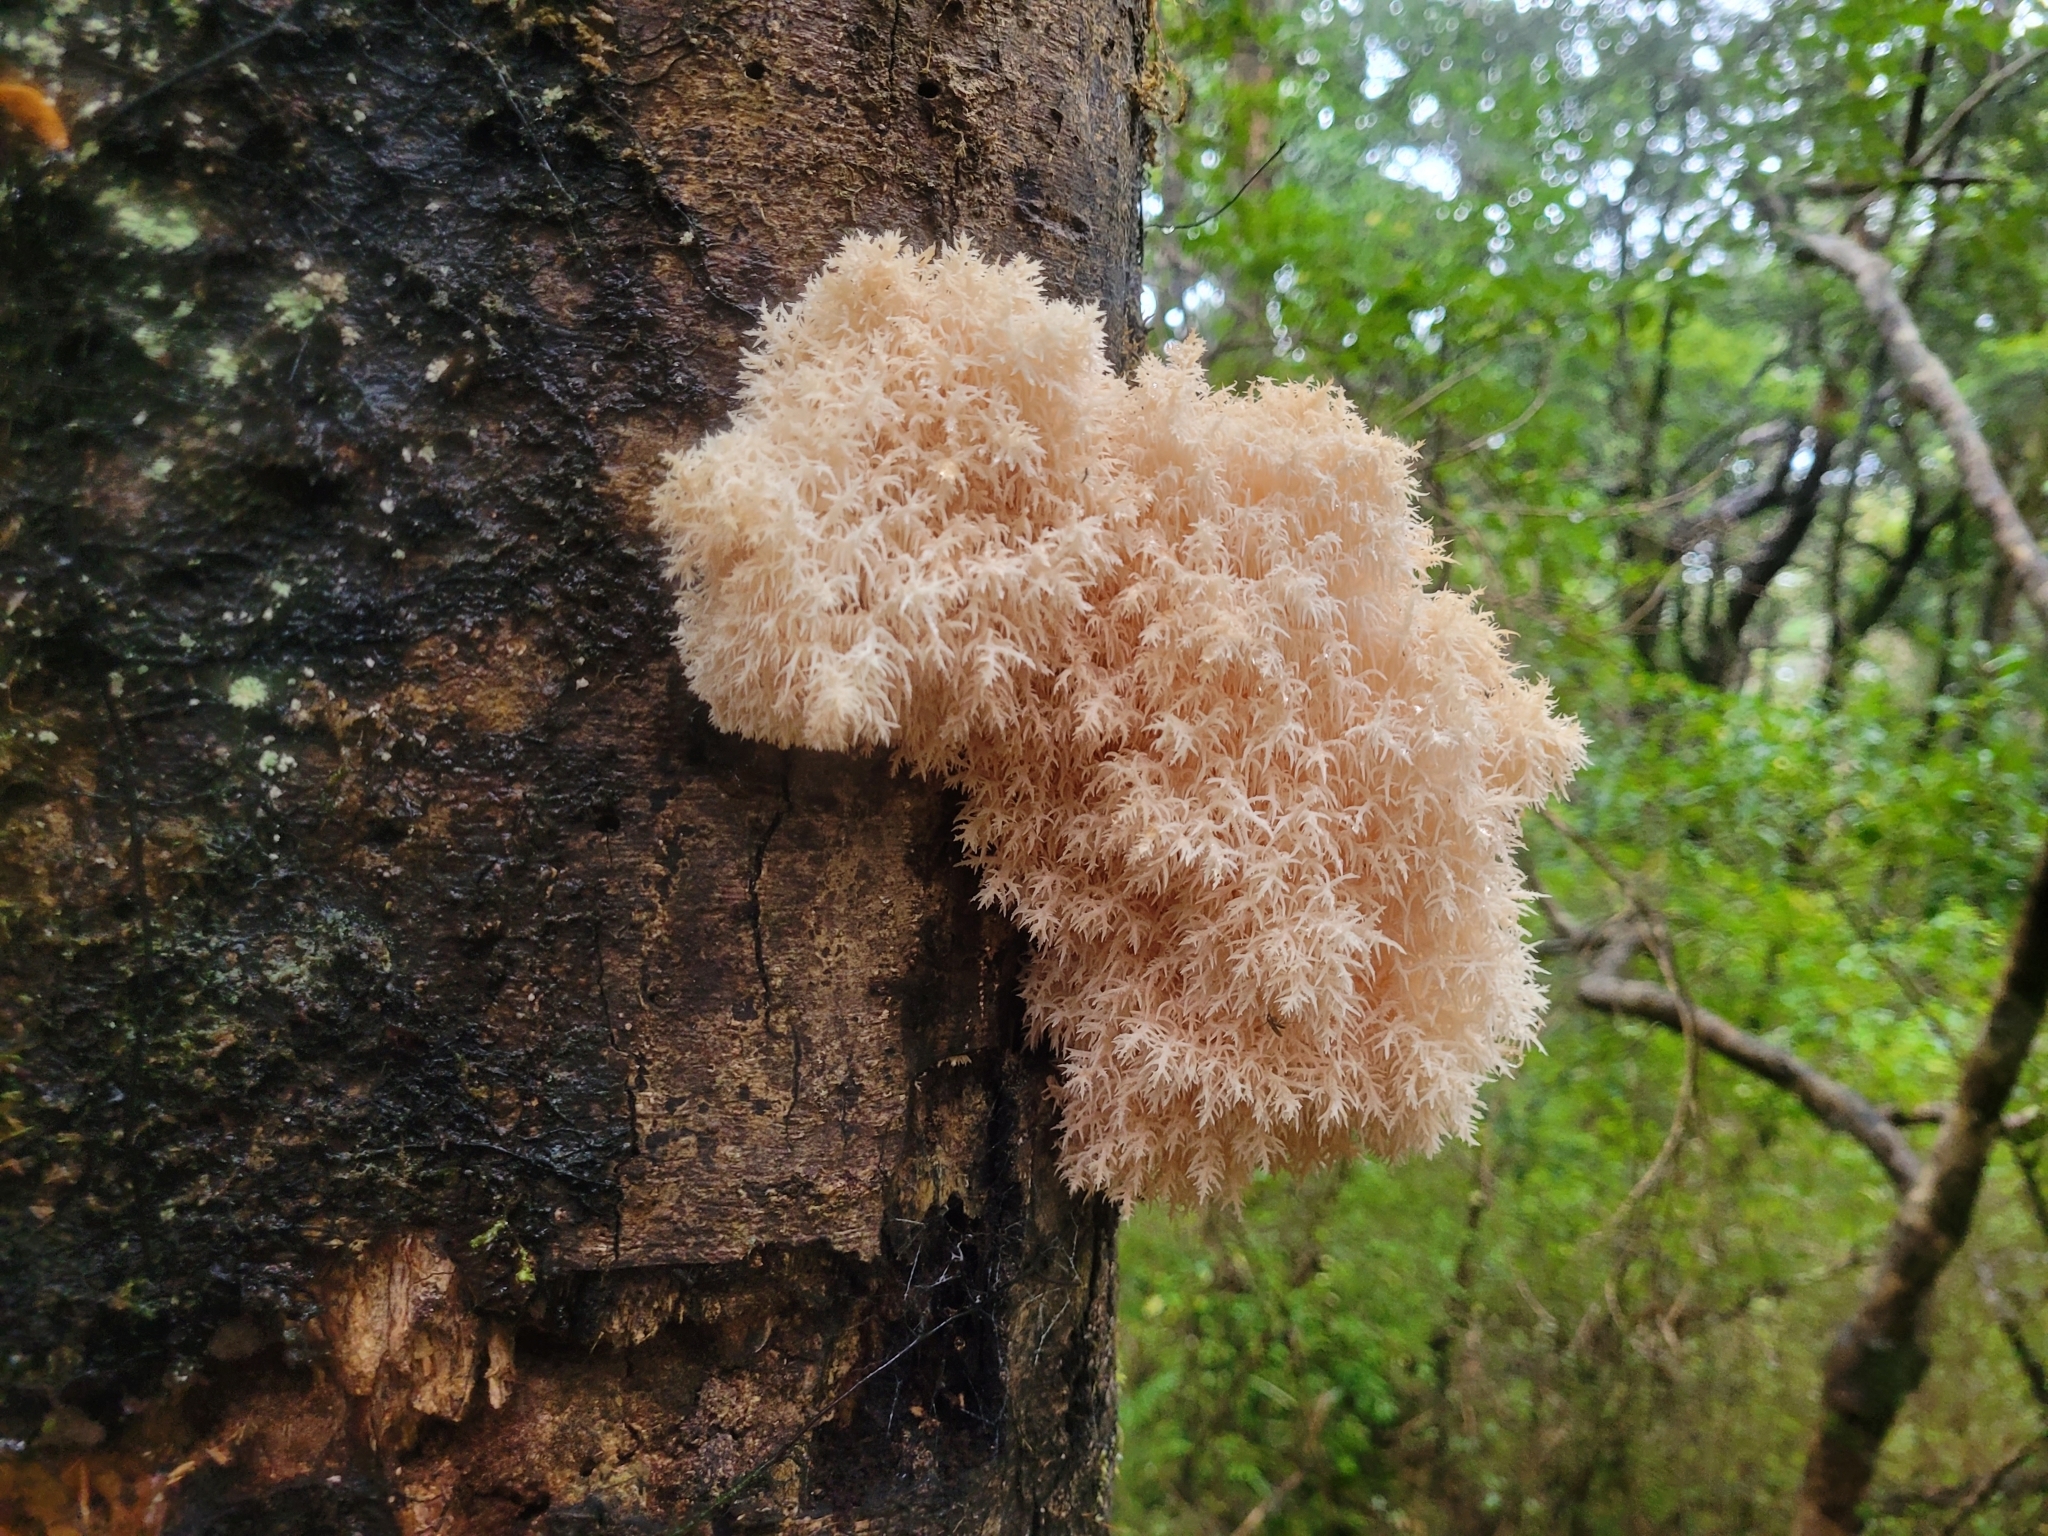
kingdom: Fungi
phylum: Basidiomycota
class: Agaricomycetes
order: Russulales
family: Hericiaceae
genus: Hericium
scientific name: Hericium novae-zealandiae
